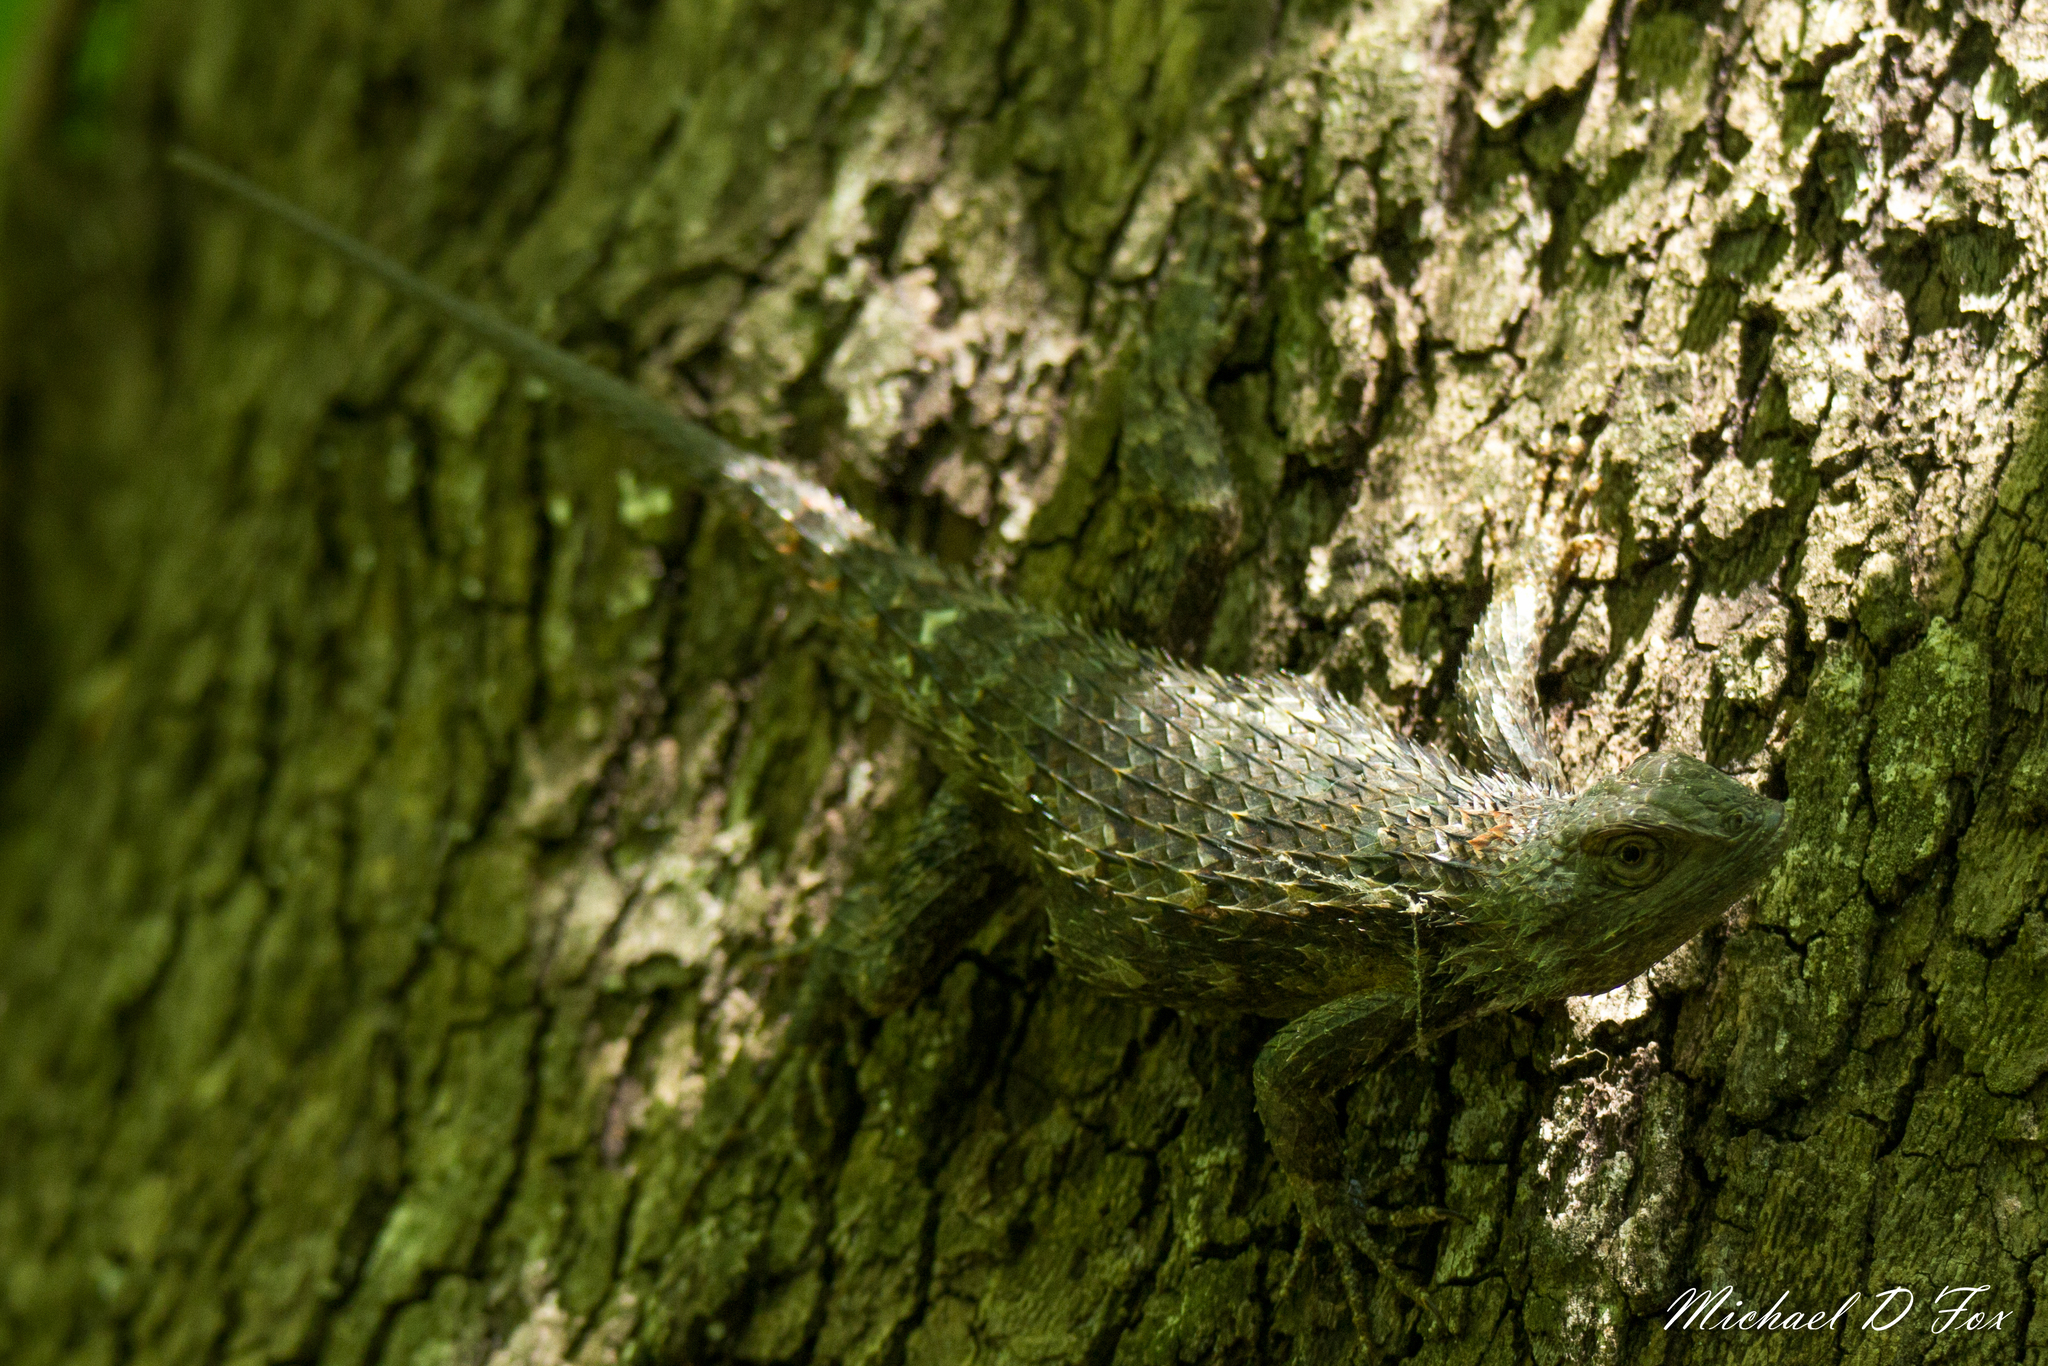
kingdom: Animalia
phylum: Chordata
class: Squamata
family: Phrynosomatidae
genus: Sceloporus
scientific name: Sceloporus olivaceus
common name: Texas spiny lizard
